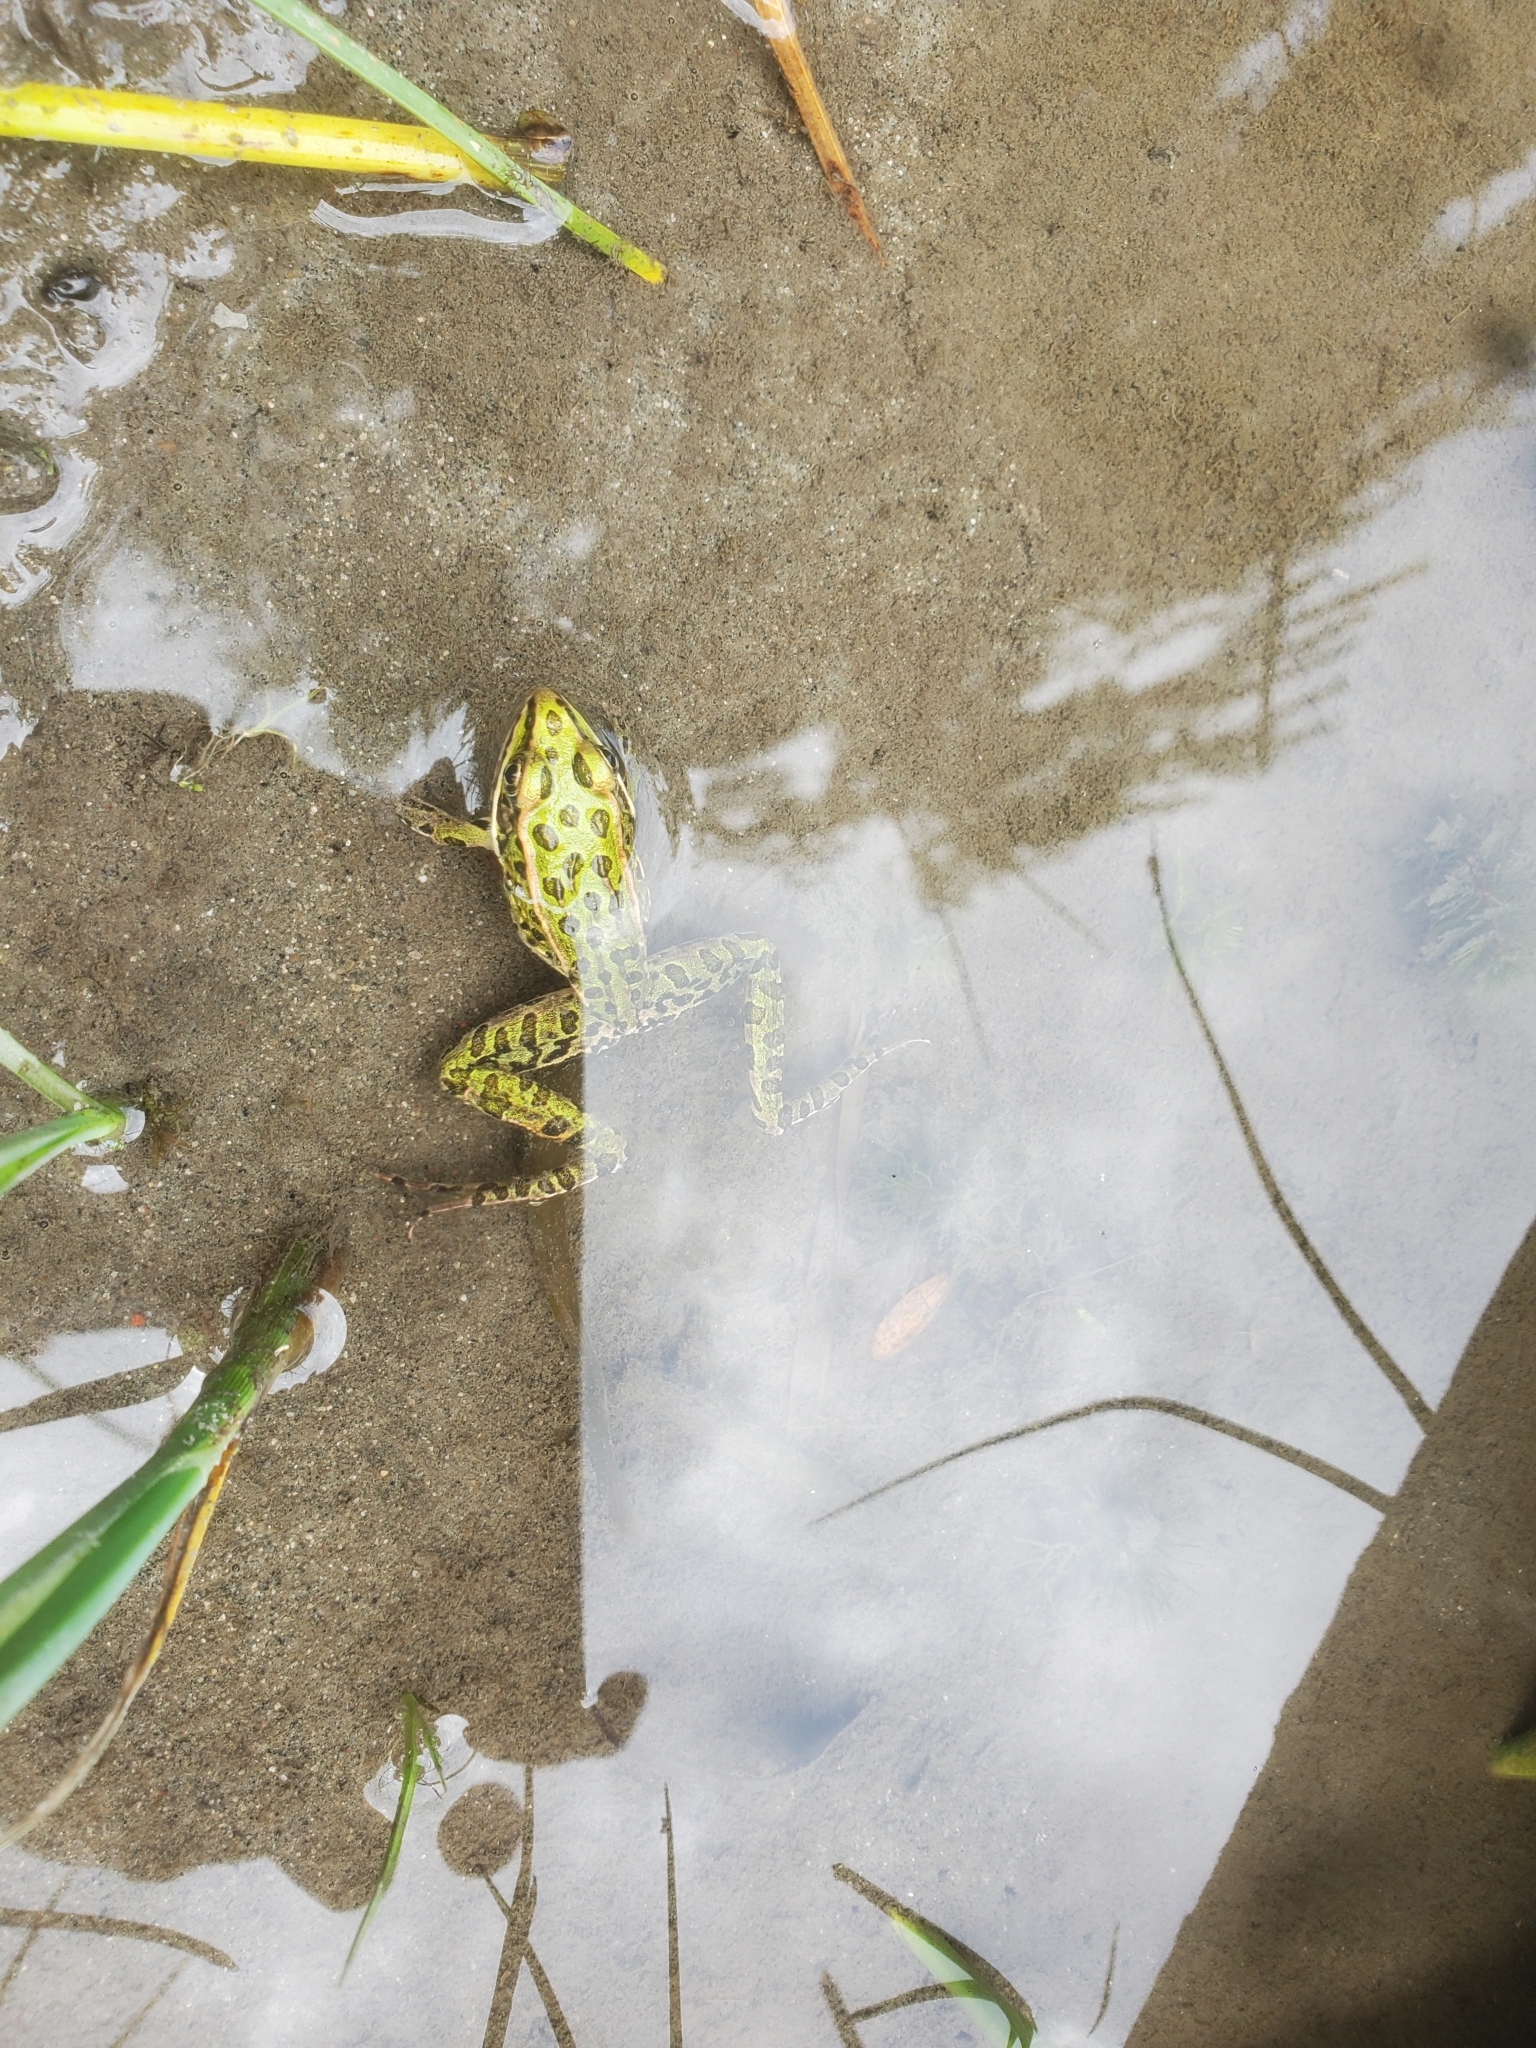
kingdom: Animalia
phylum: Chordata
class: Amphibia
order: Anura
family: Ranidae
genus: Lithobates
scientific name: Lithobates pipiens
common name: Northern leopard frog
